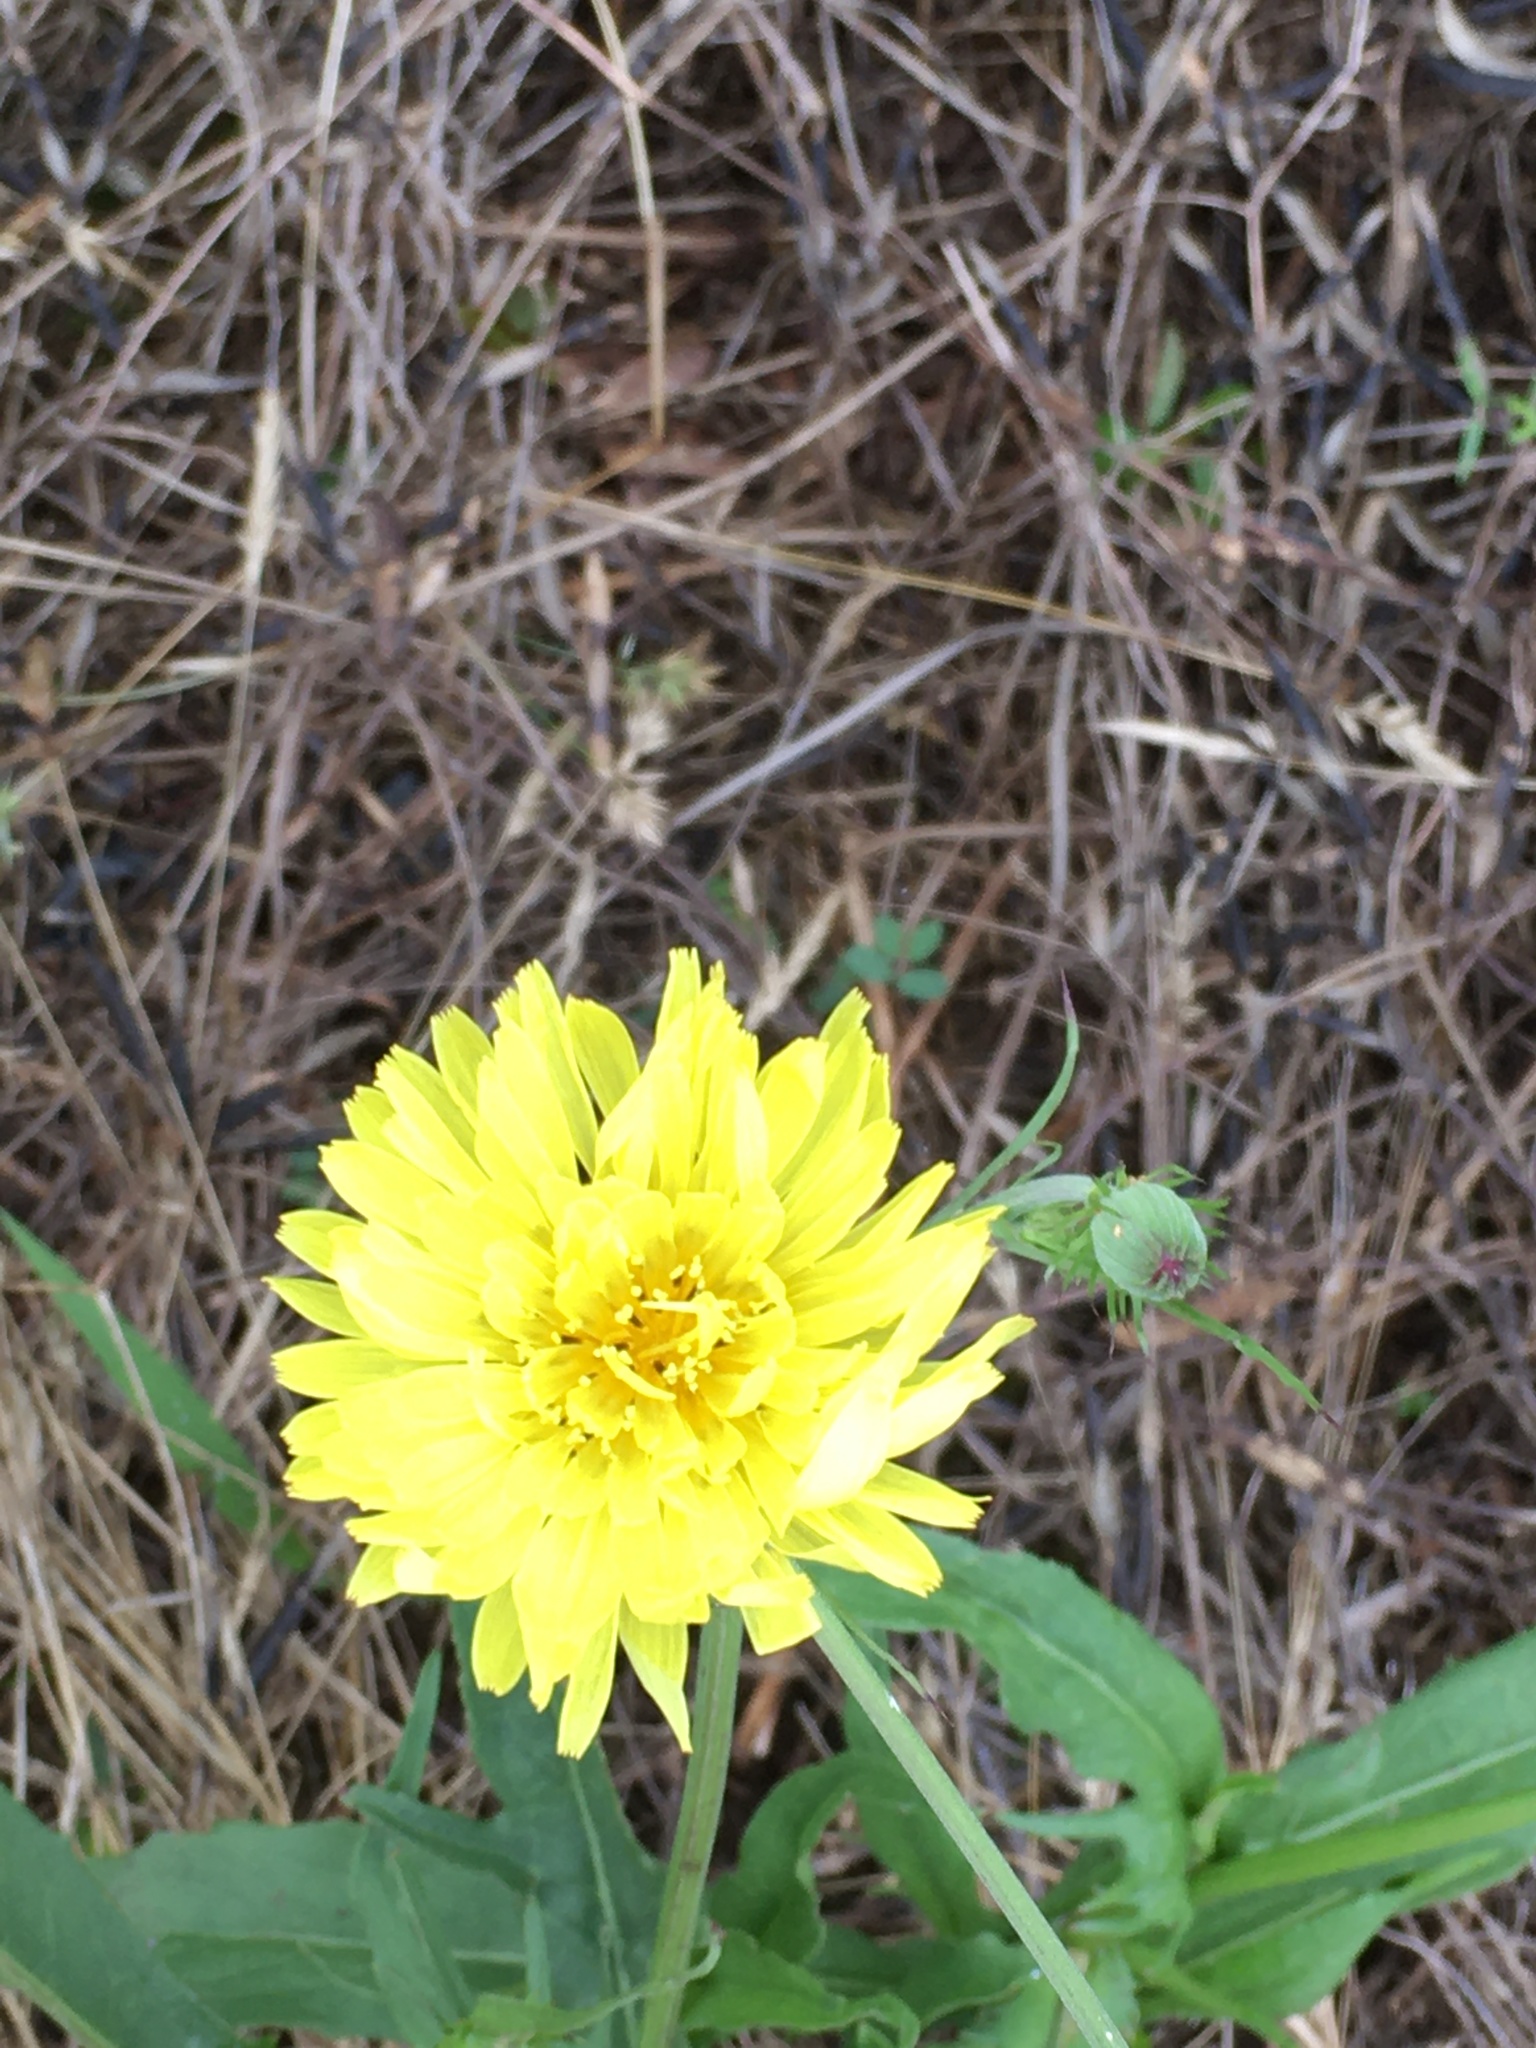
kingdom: Plantae
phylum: Tracheophyta
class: Magnoliopsida
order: Asterales
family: Asteraceae
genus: Pyrrhopappus
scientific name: Pyrrhopappus carolinianus
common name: Carolina desert-chicory
